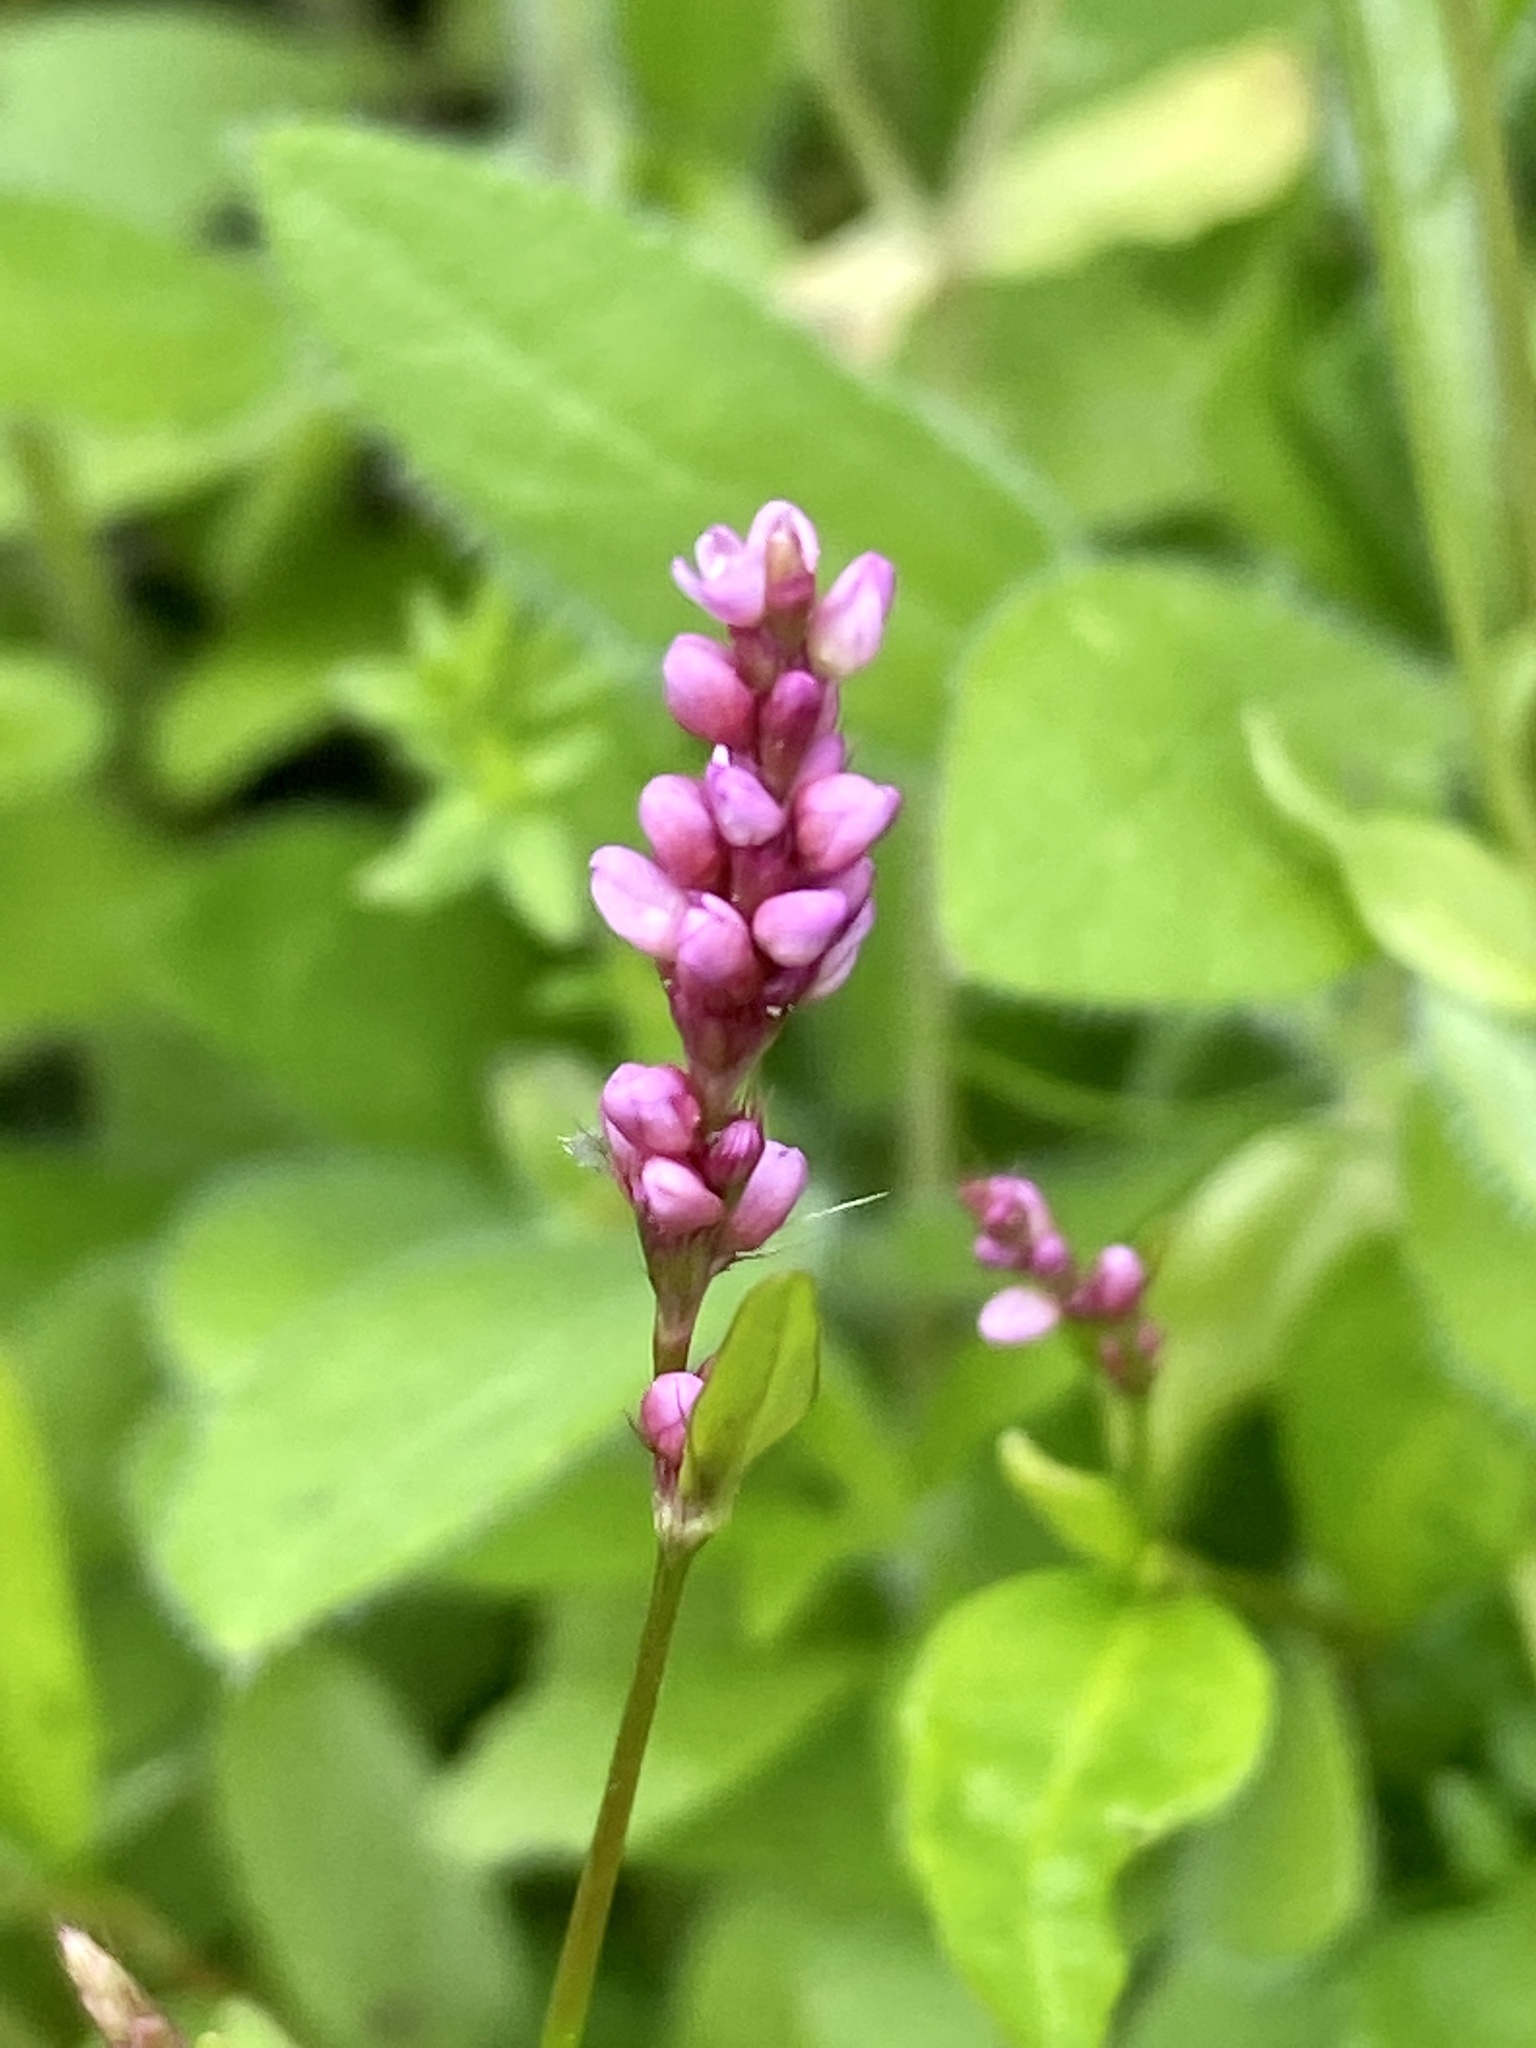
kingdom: Plantae
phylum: Tracheophyta
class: Magnoliopsida
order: Caryophyllales
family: Polygonaceae
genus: Persicaria
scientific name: Persicaria longiseta
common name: Bristly lady's-thumb
